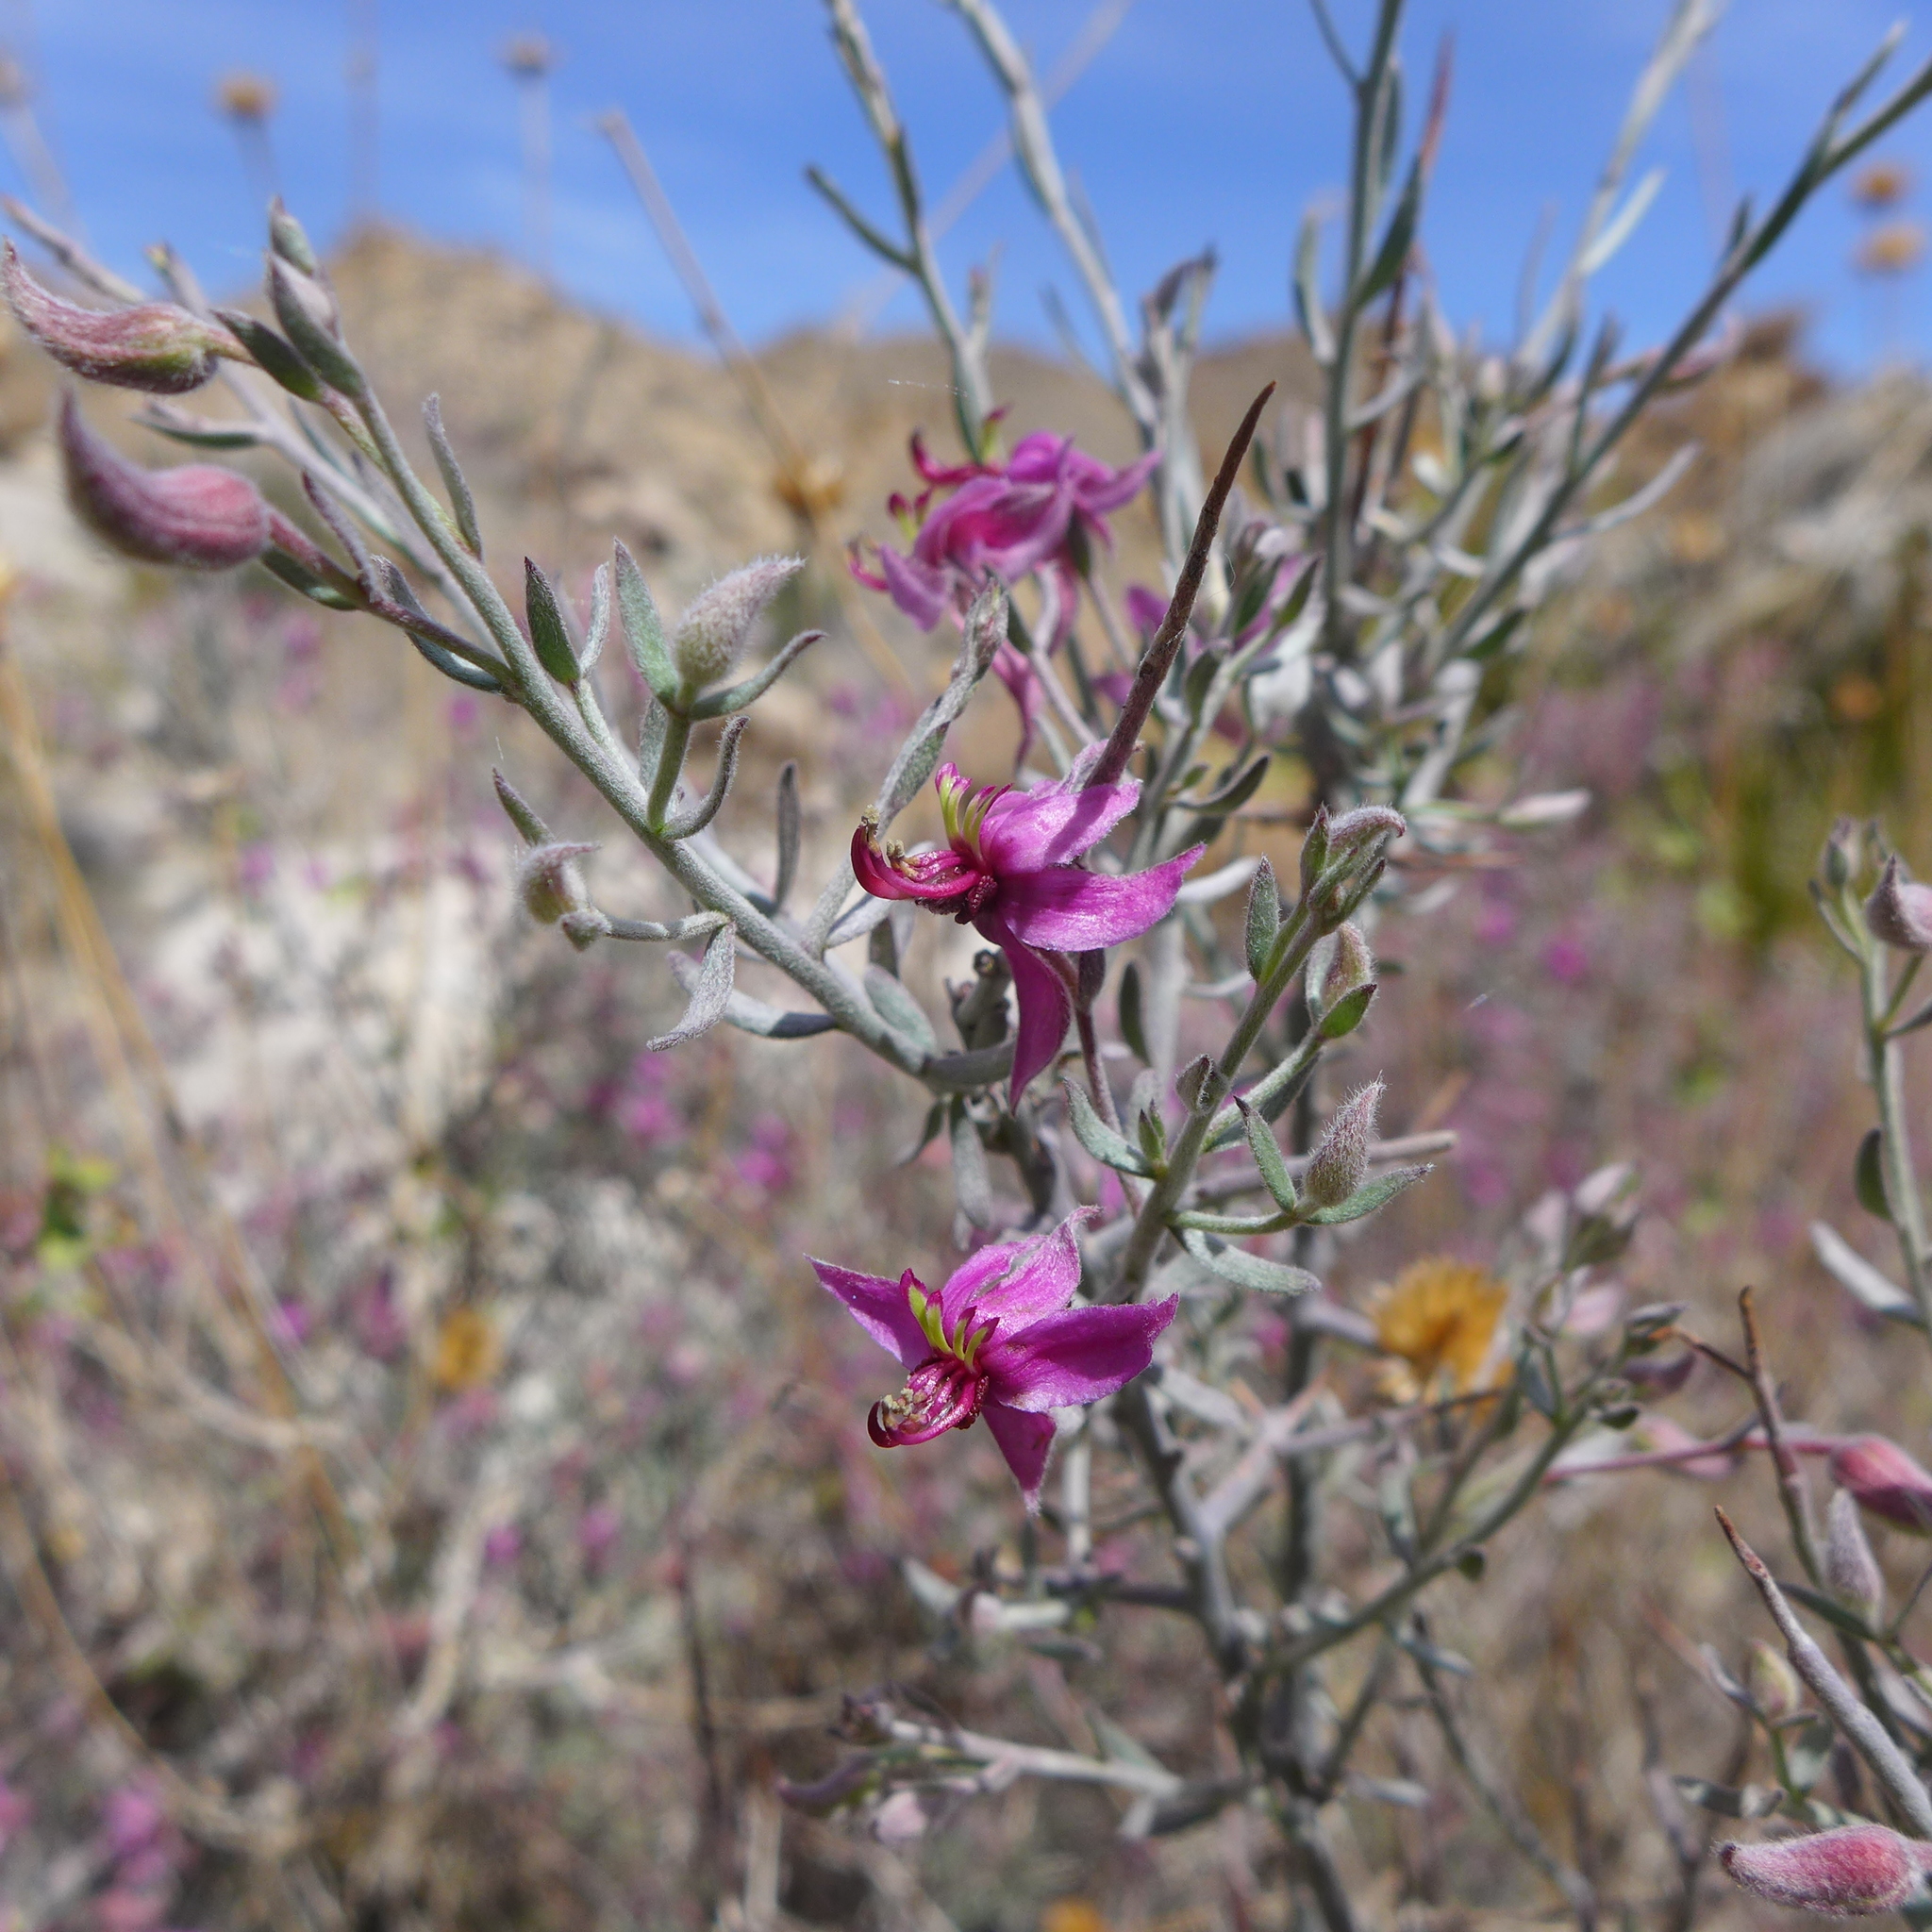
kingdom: Plantae
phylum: Tracheophyta
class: Magnoliopsida
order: Zygophyllales
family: Krameriaceae
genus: Krameria
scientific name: Krameria bicolor
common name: White ratany
